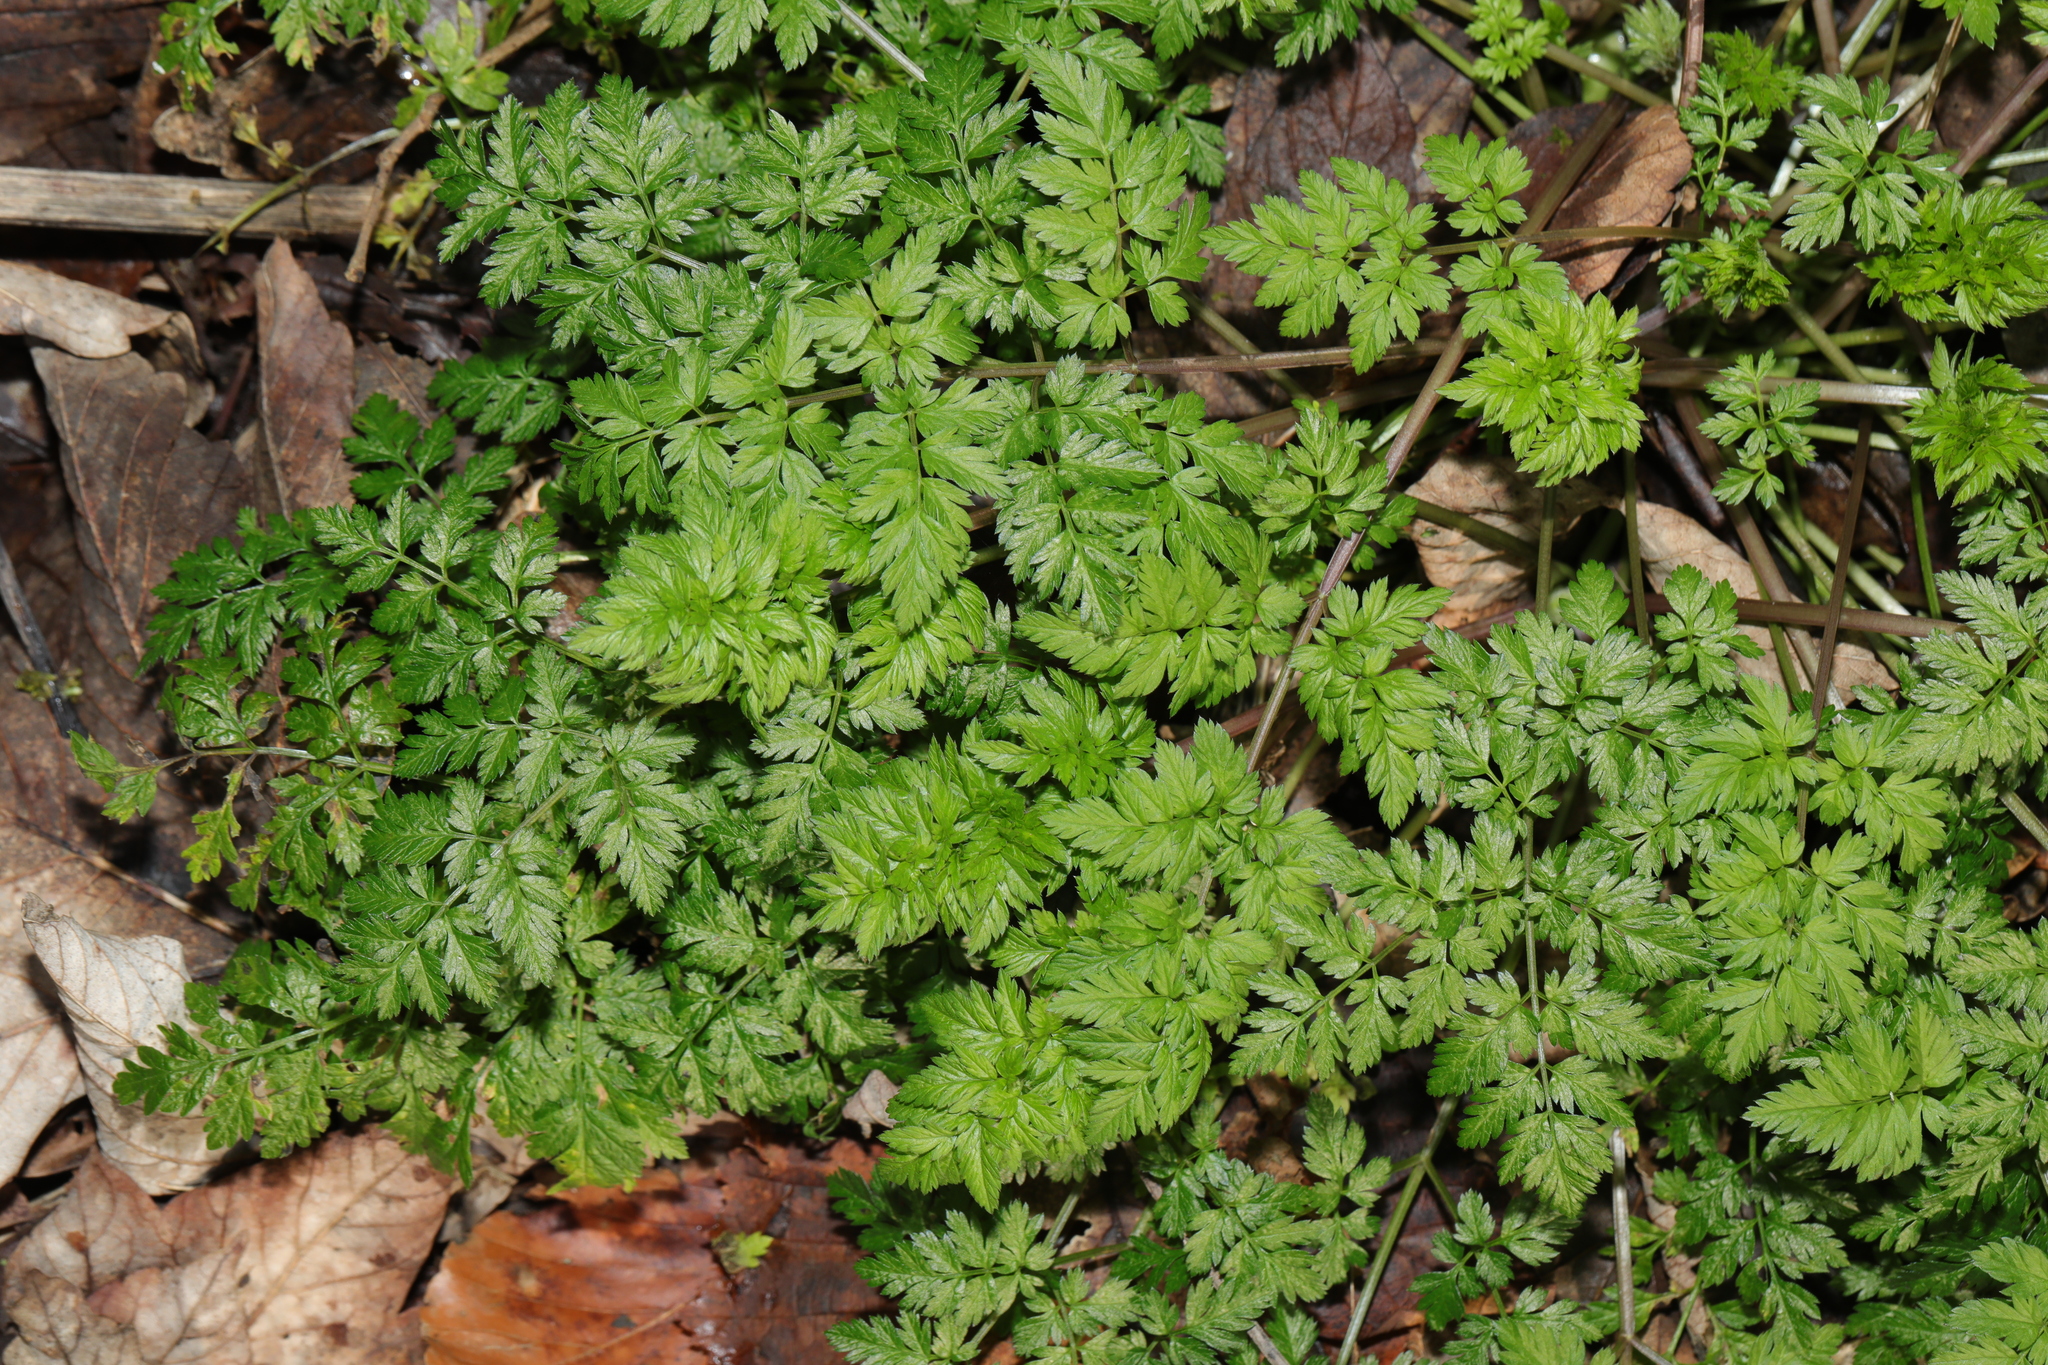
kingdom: Plantae
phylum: Tracheophyta
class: Magnoliopsida
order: Apiales
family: Apiaceae
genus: Anthriscus
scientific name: Anthriscus sylvestris
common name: Cow parsley
